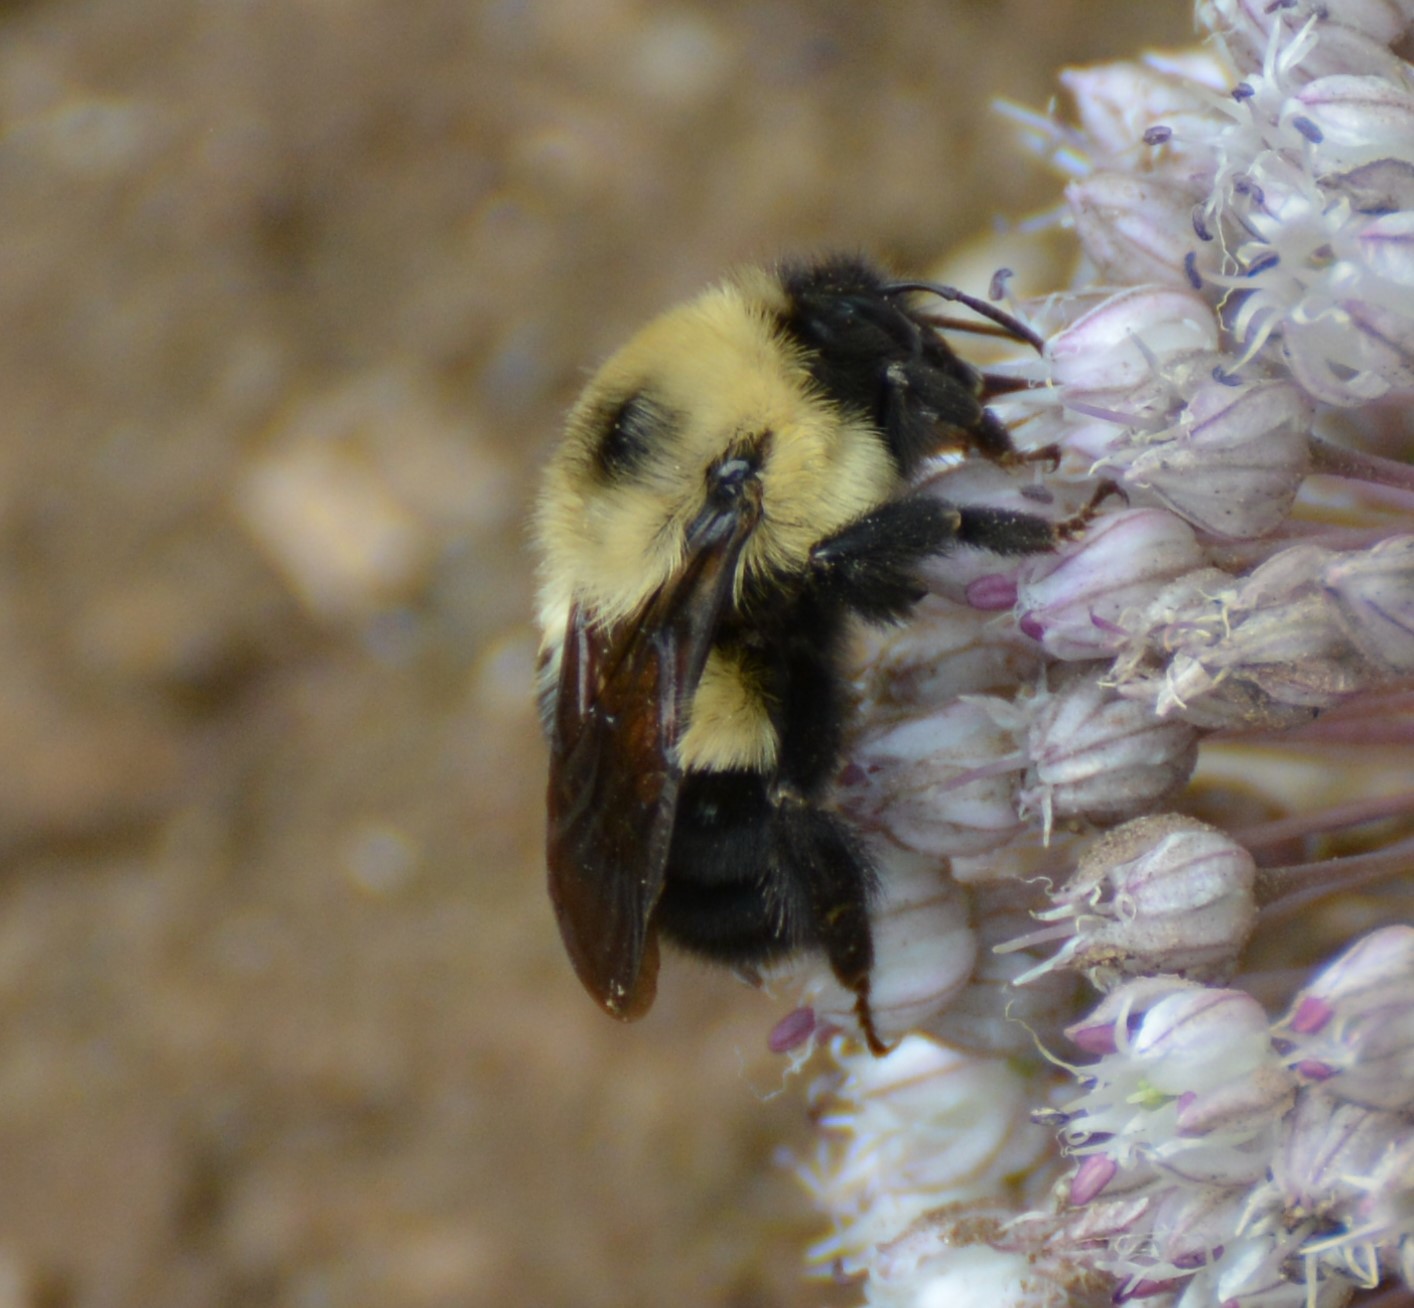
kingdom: Animalia
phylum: Arthropoda
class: Insecta
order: Hymenoptera
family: Apidae
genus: Bombus
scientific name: Bombus bimaculatus
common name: Two-spotted bumble bee
